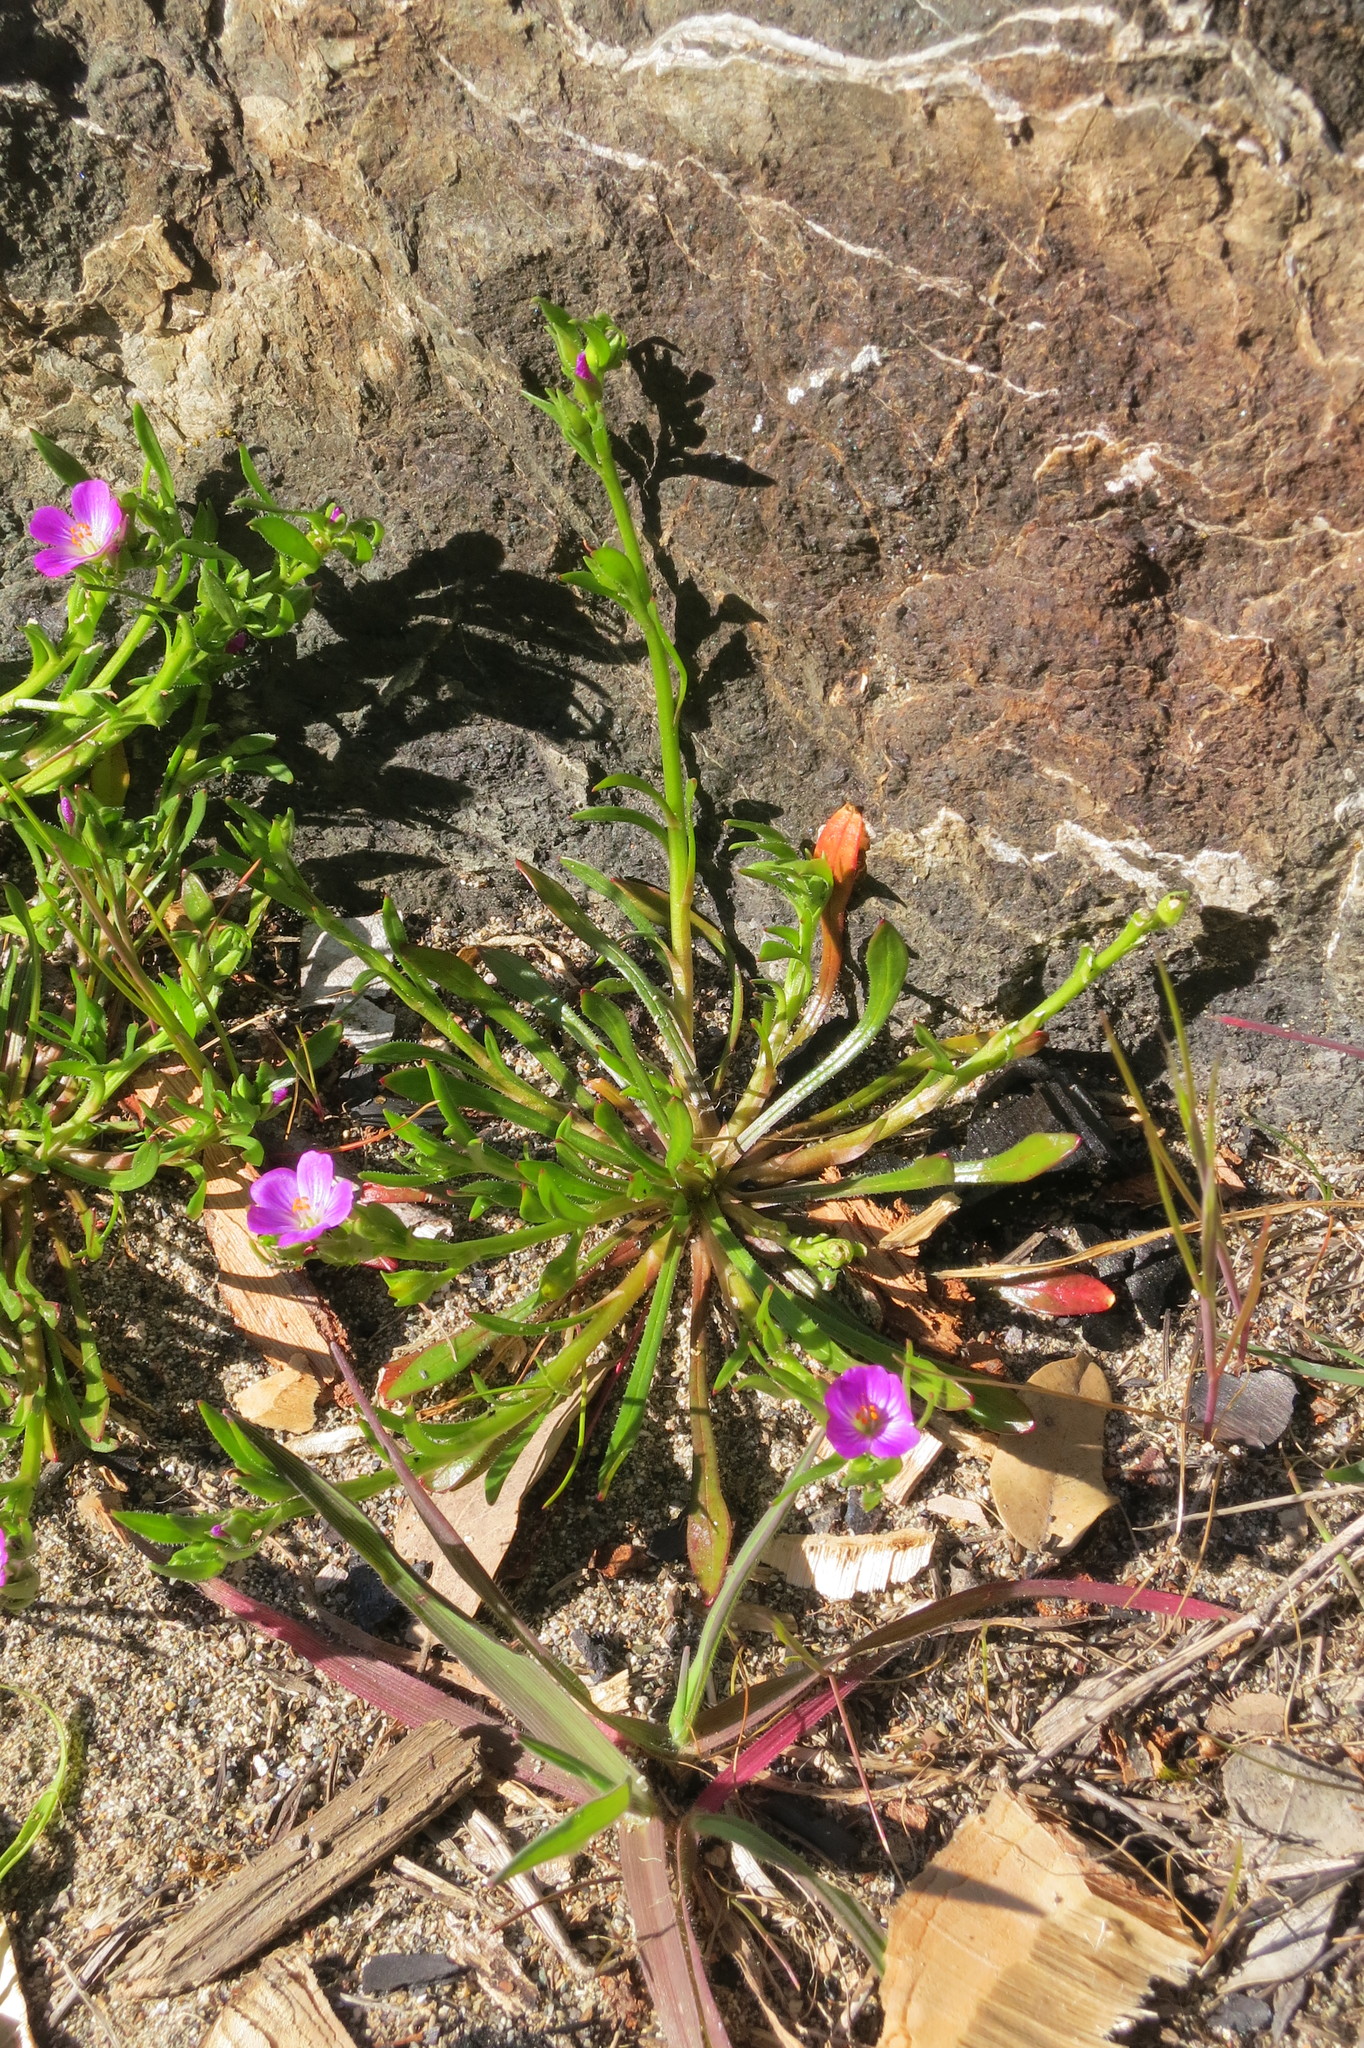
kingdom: Plantae
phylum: Tracheophyta
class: Magnoliopsida
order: Caryophyllales
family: Montiaceae
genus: Calandrinia
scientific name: Calandrinia menziesii
